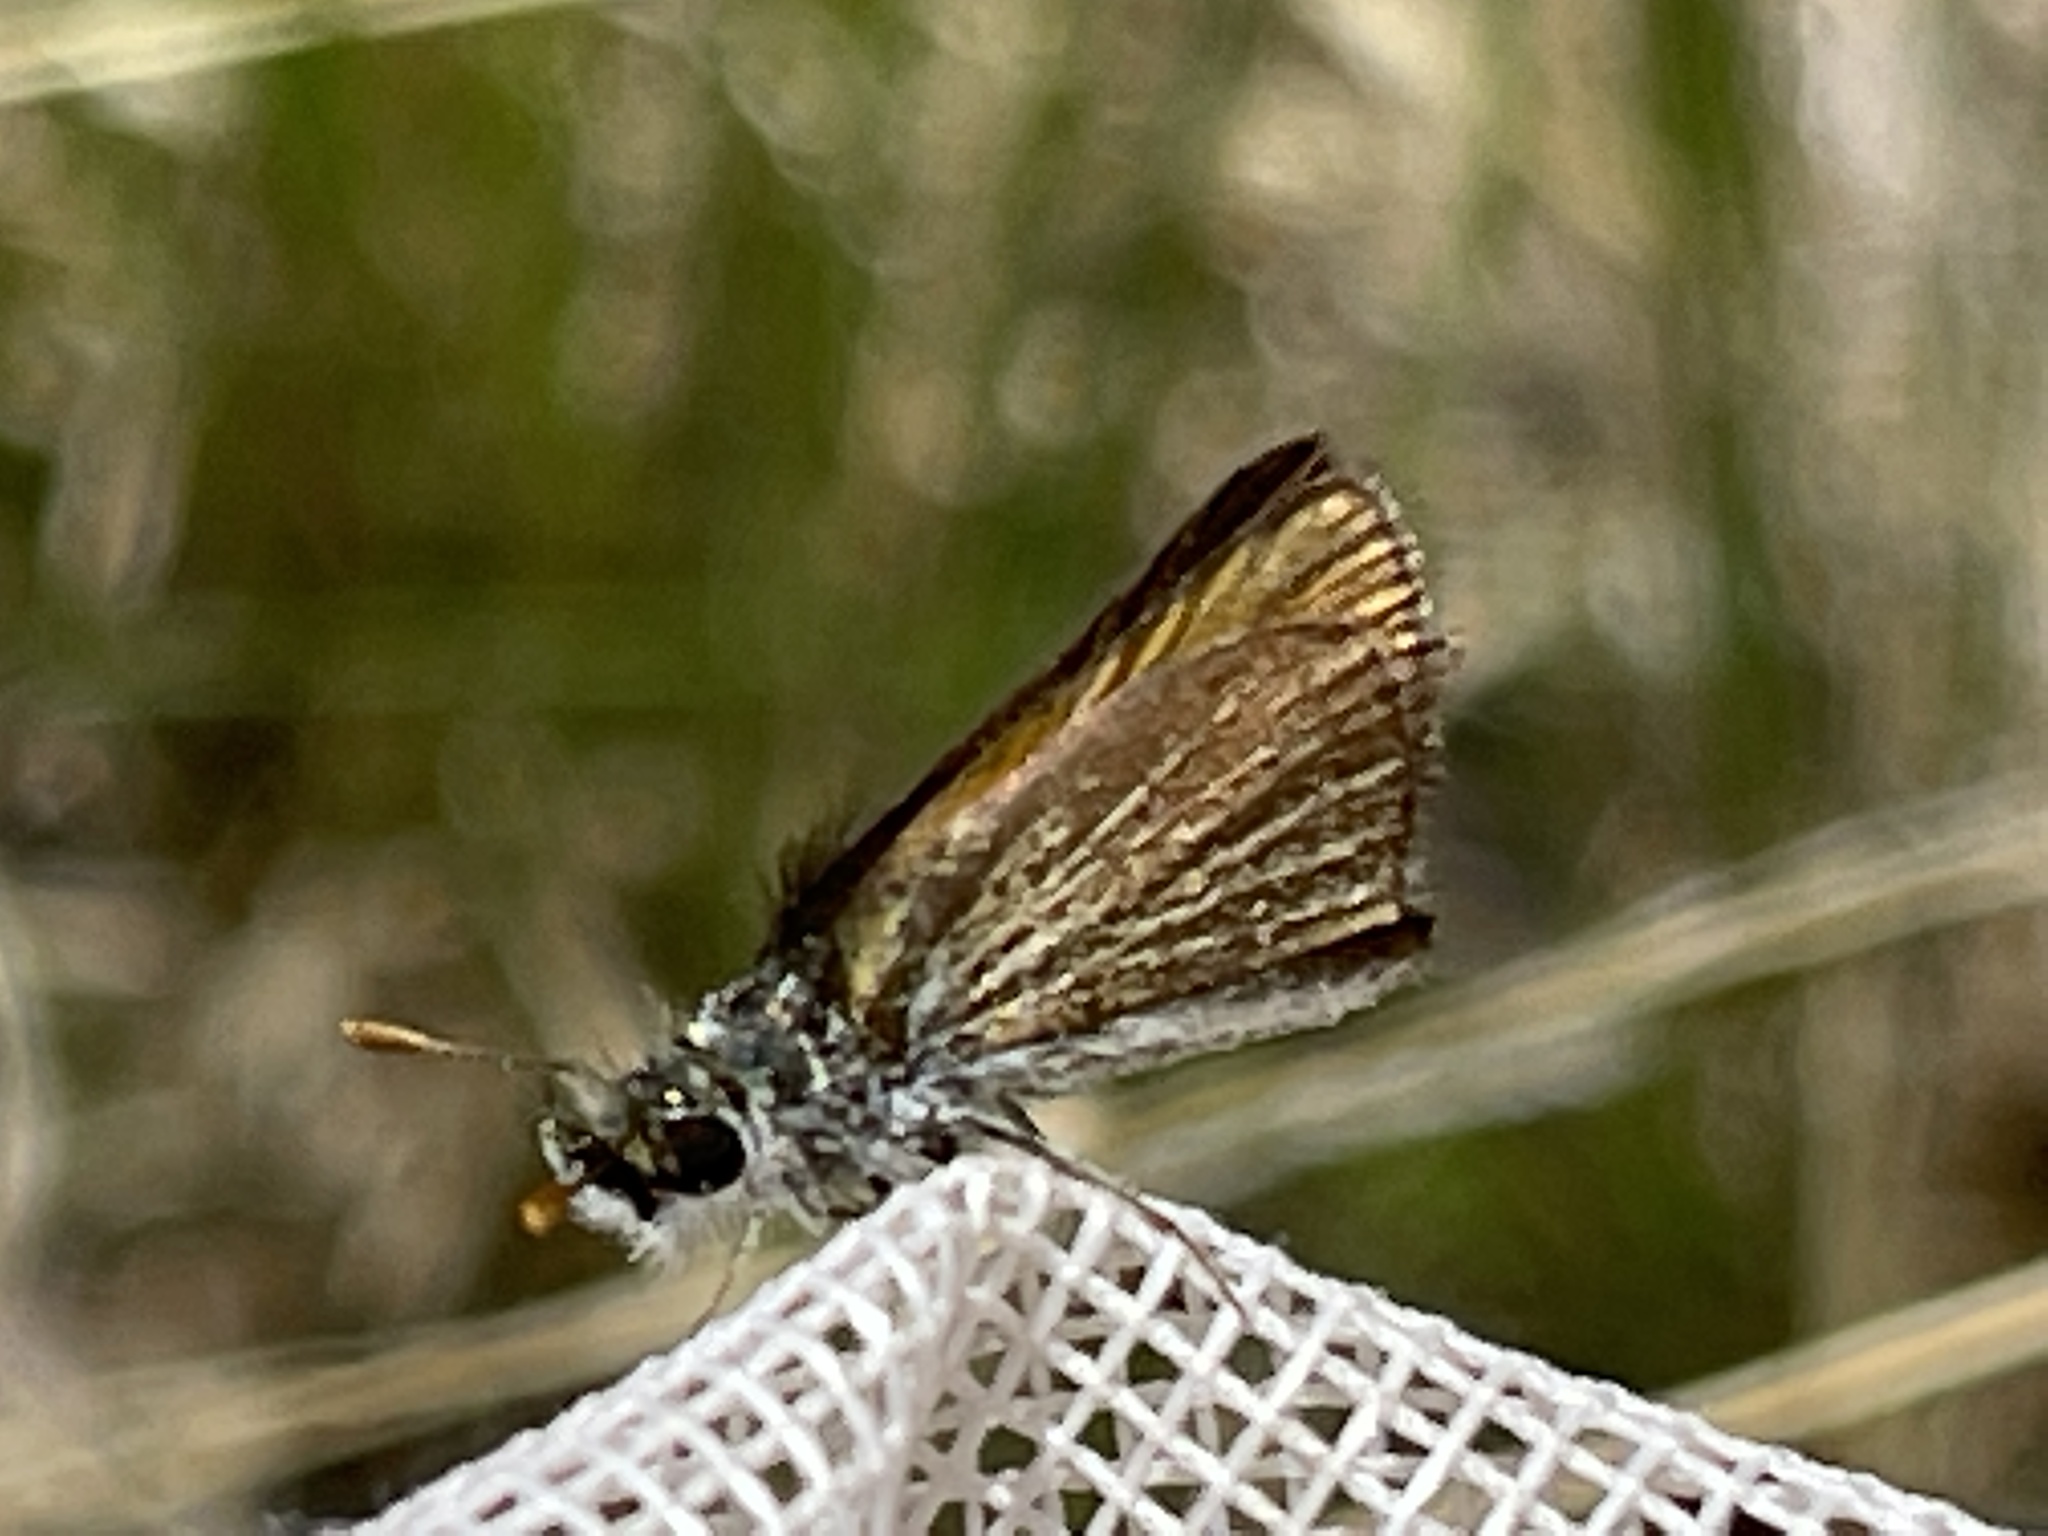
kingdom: Animalia
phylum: Arthropoda
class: Insecta
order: Lepidoptera
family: Hesperiidae
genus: Oarisma
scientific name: Oarisma garita
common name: Garita skipperling
